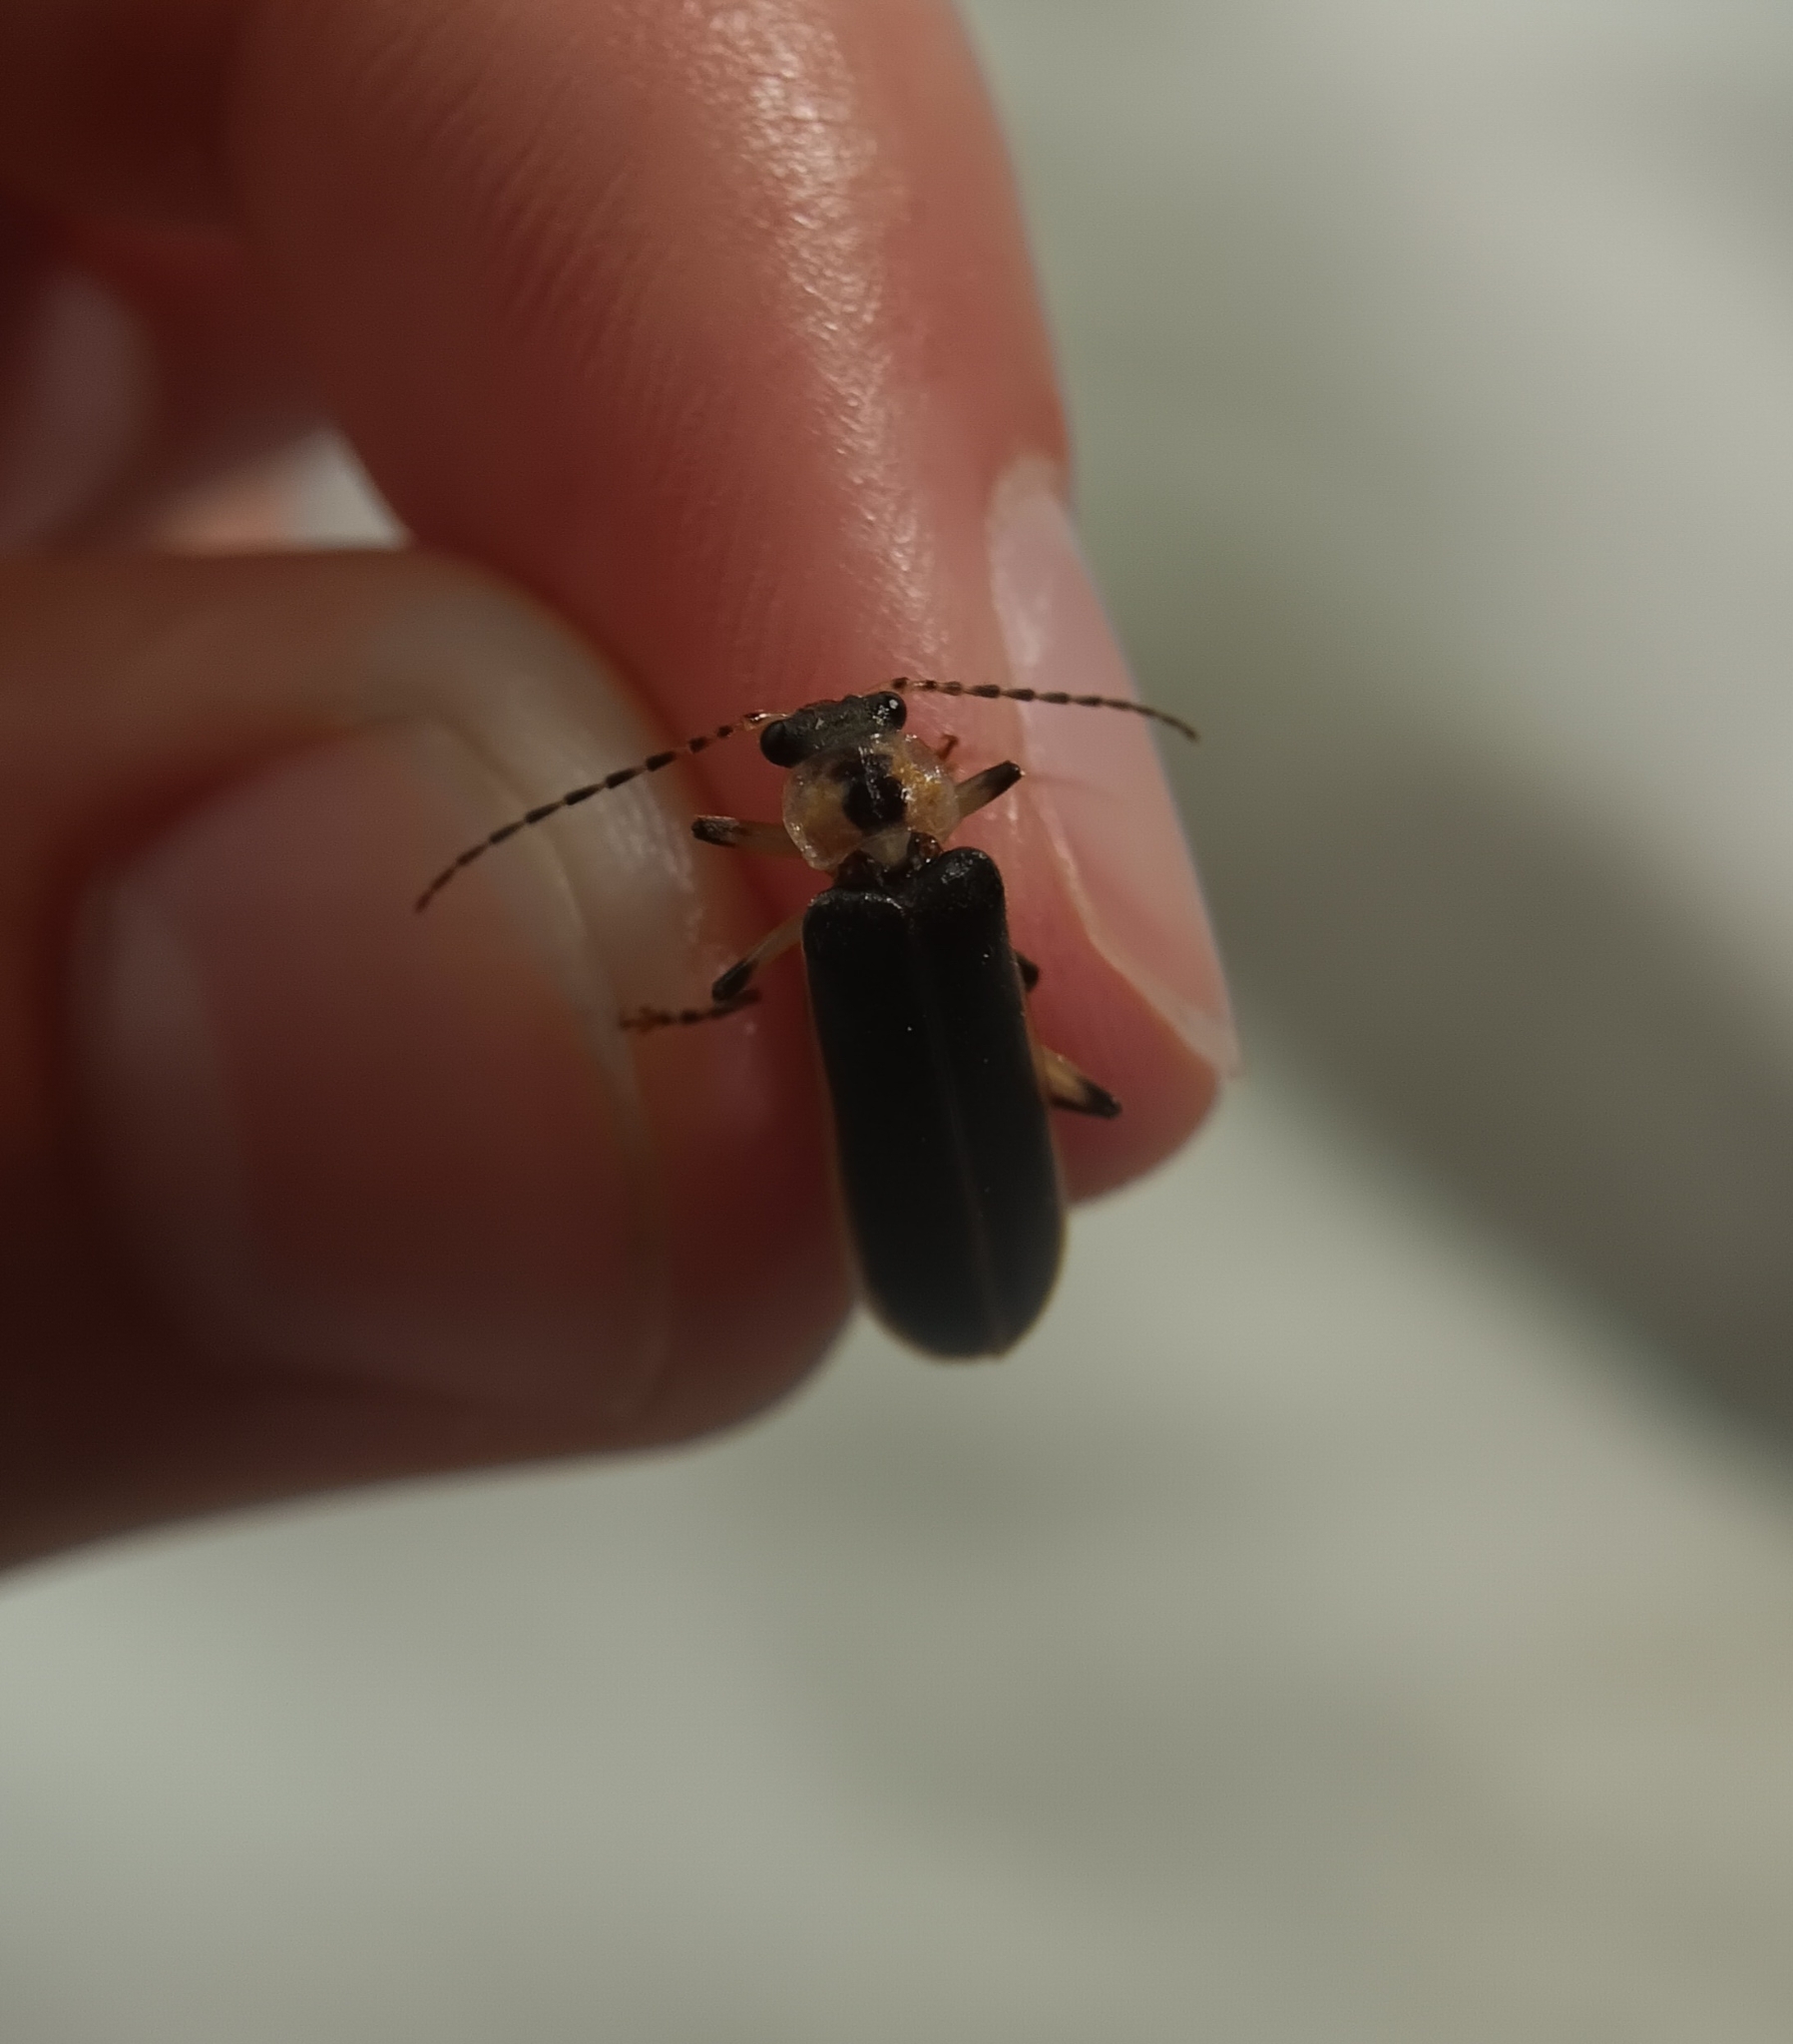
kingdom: Animalia
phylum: Arthropoda
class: Insecta
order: Coleoptera
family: Cantharidae
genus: Podabrus
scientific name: Podabrus basilaris
